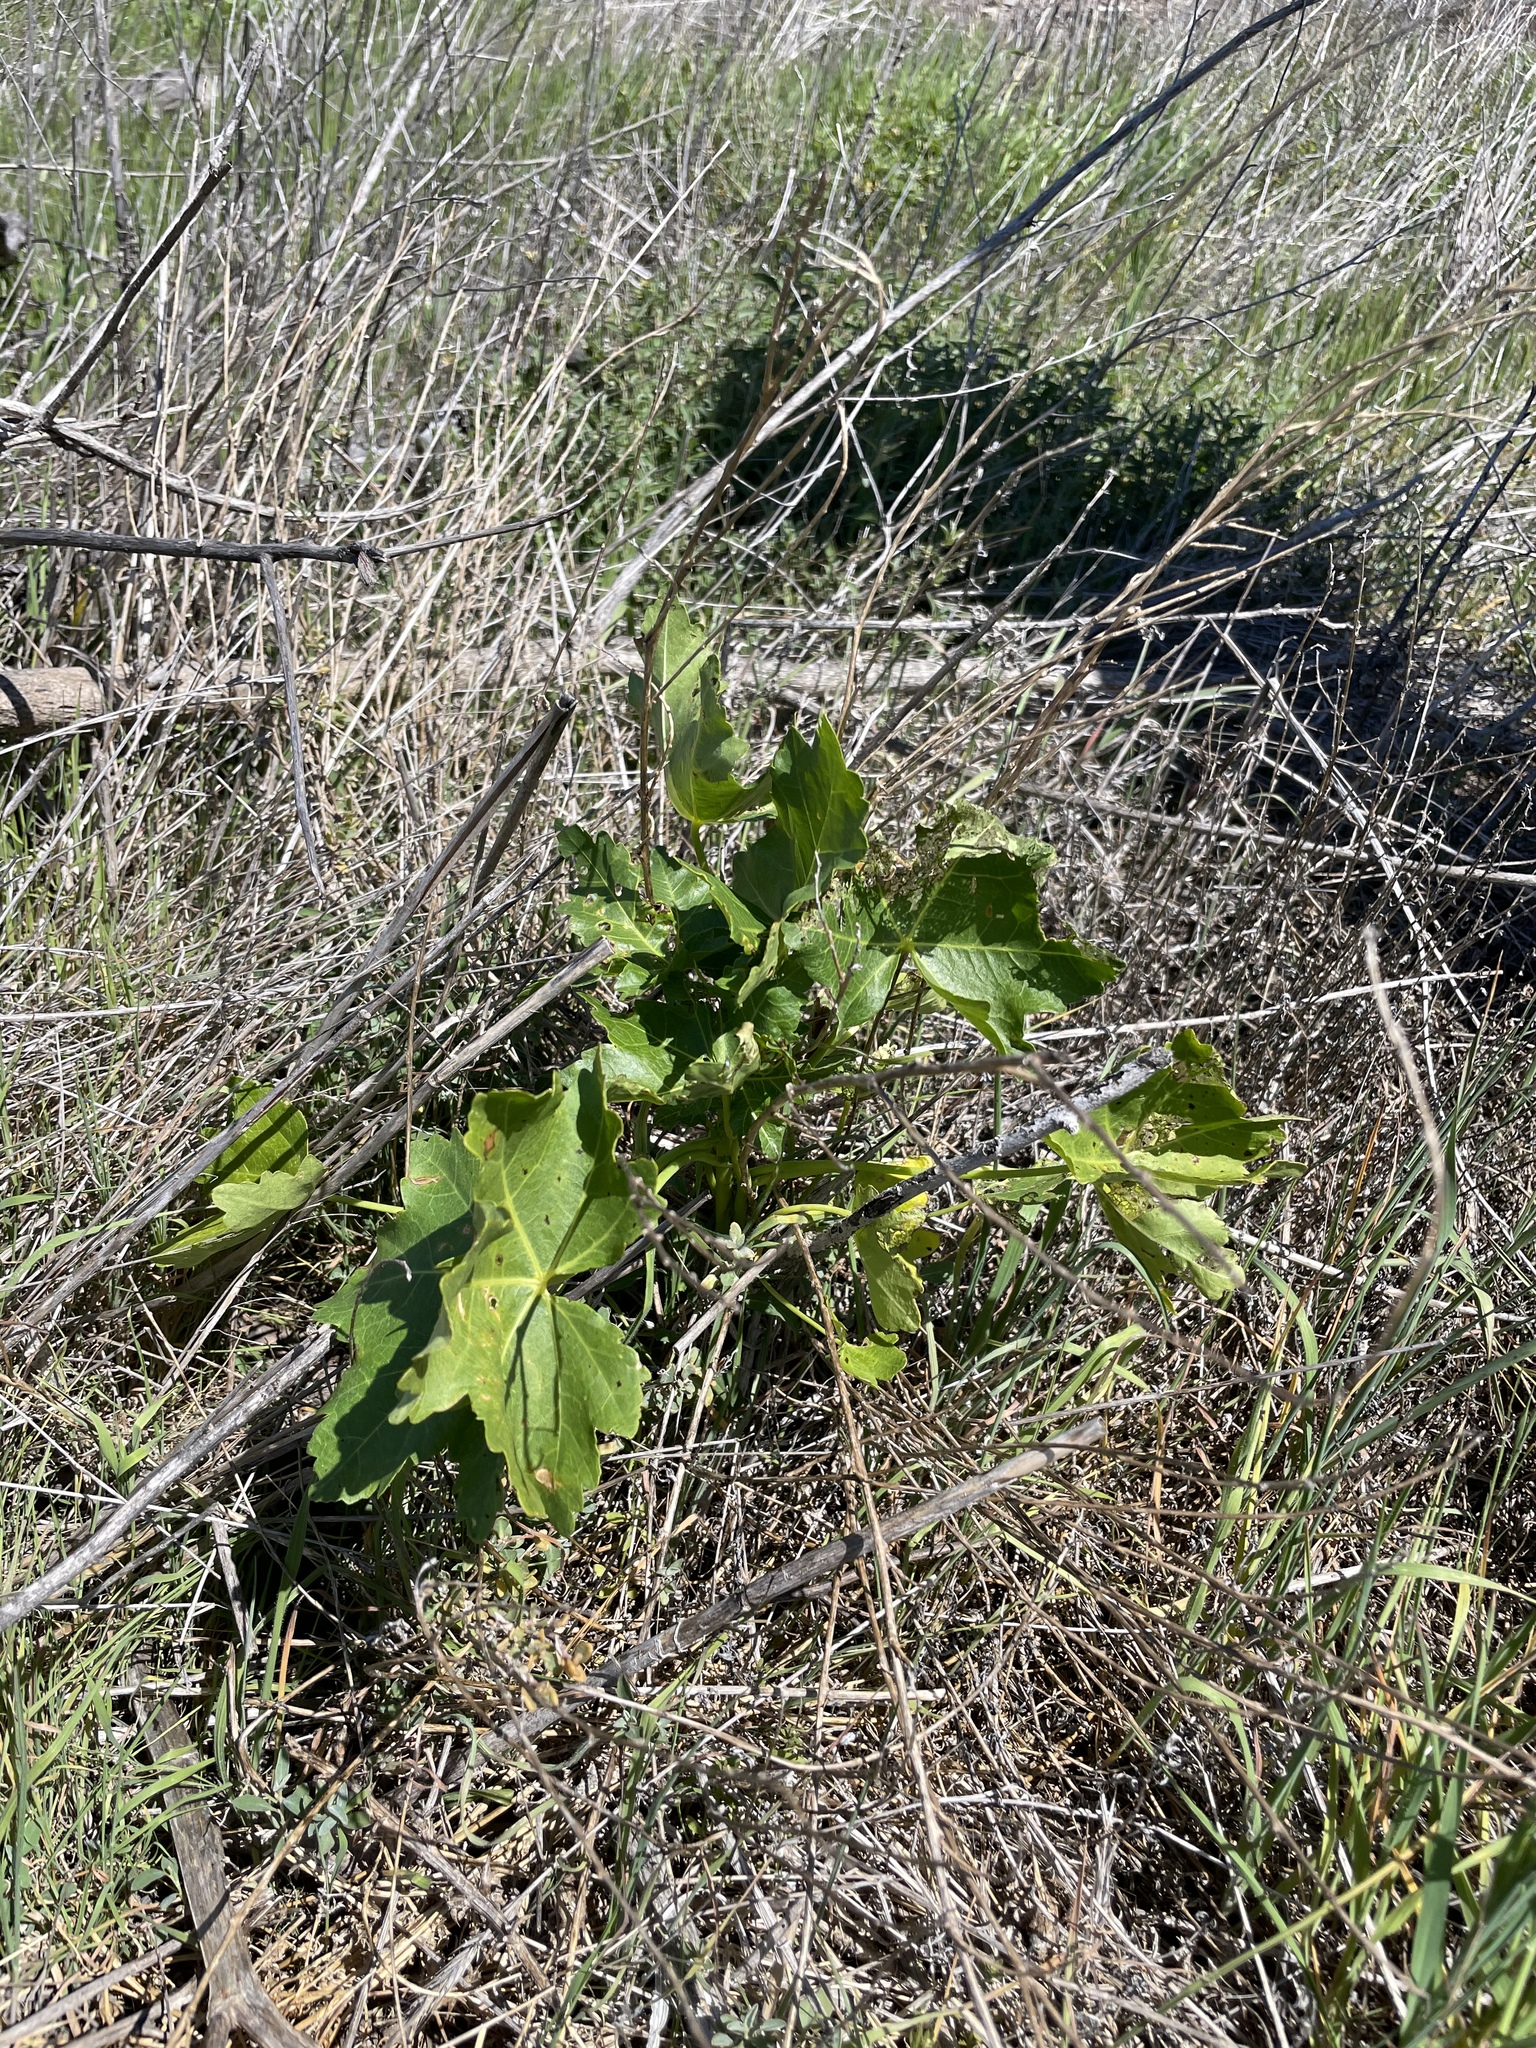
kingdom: Plantae
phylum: Tracheophyta
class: Magnoliopsida
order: Malvales
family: Malvaceae
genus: Malva
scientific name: Malva assurgentiflora
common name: Island mallow
